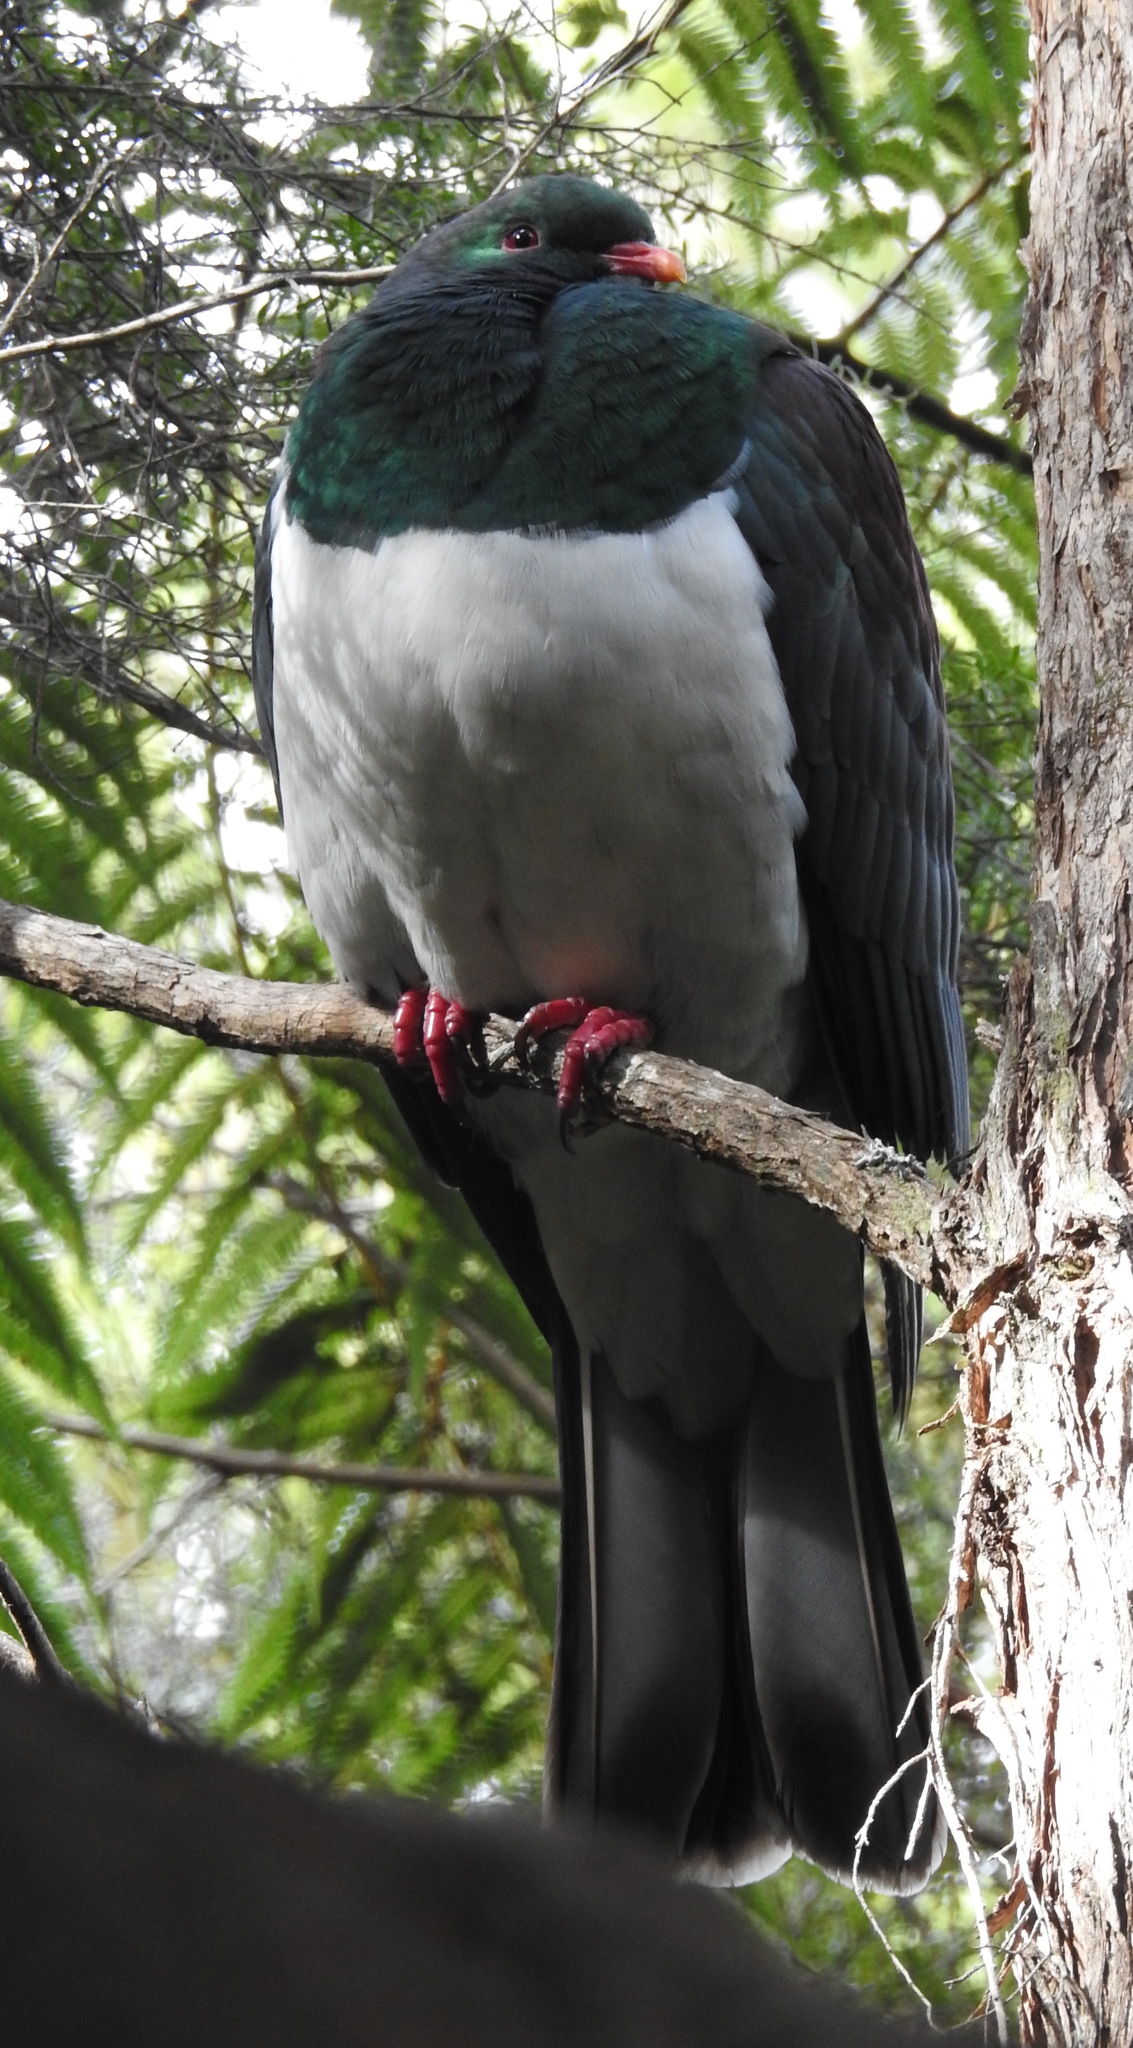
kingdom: Animalia
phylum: Chordata
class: Aves
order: Columbiformes
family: Columbidae
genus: Hemiphaga
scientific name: Hemiphaga novaeseelandiae
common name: New zealand pigeon
